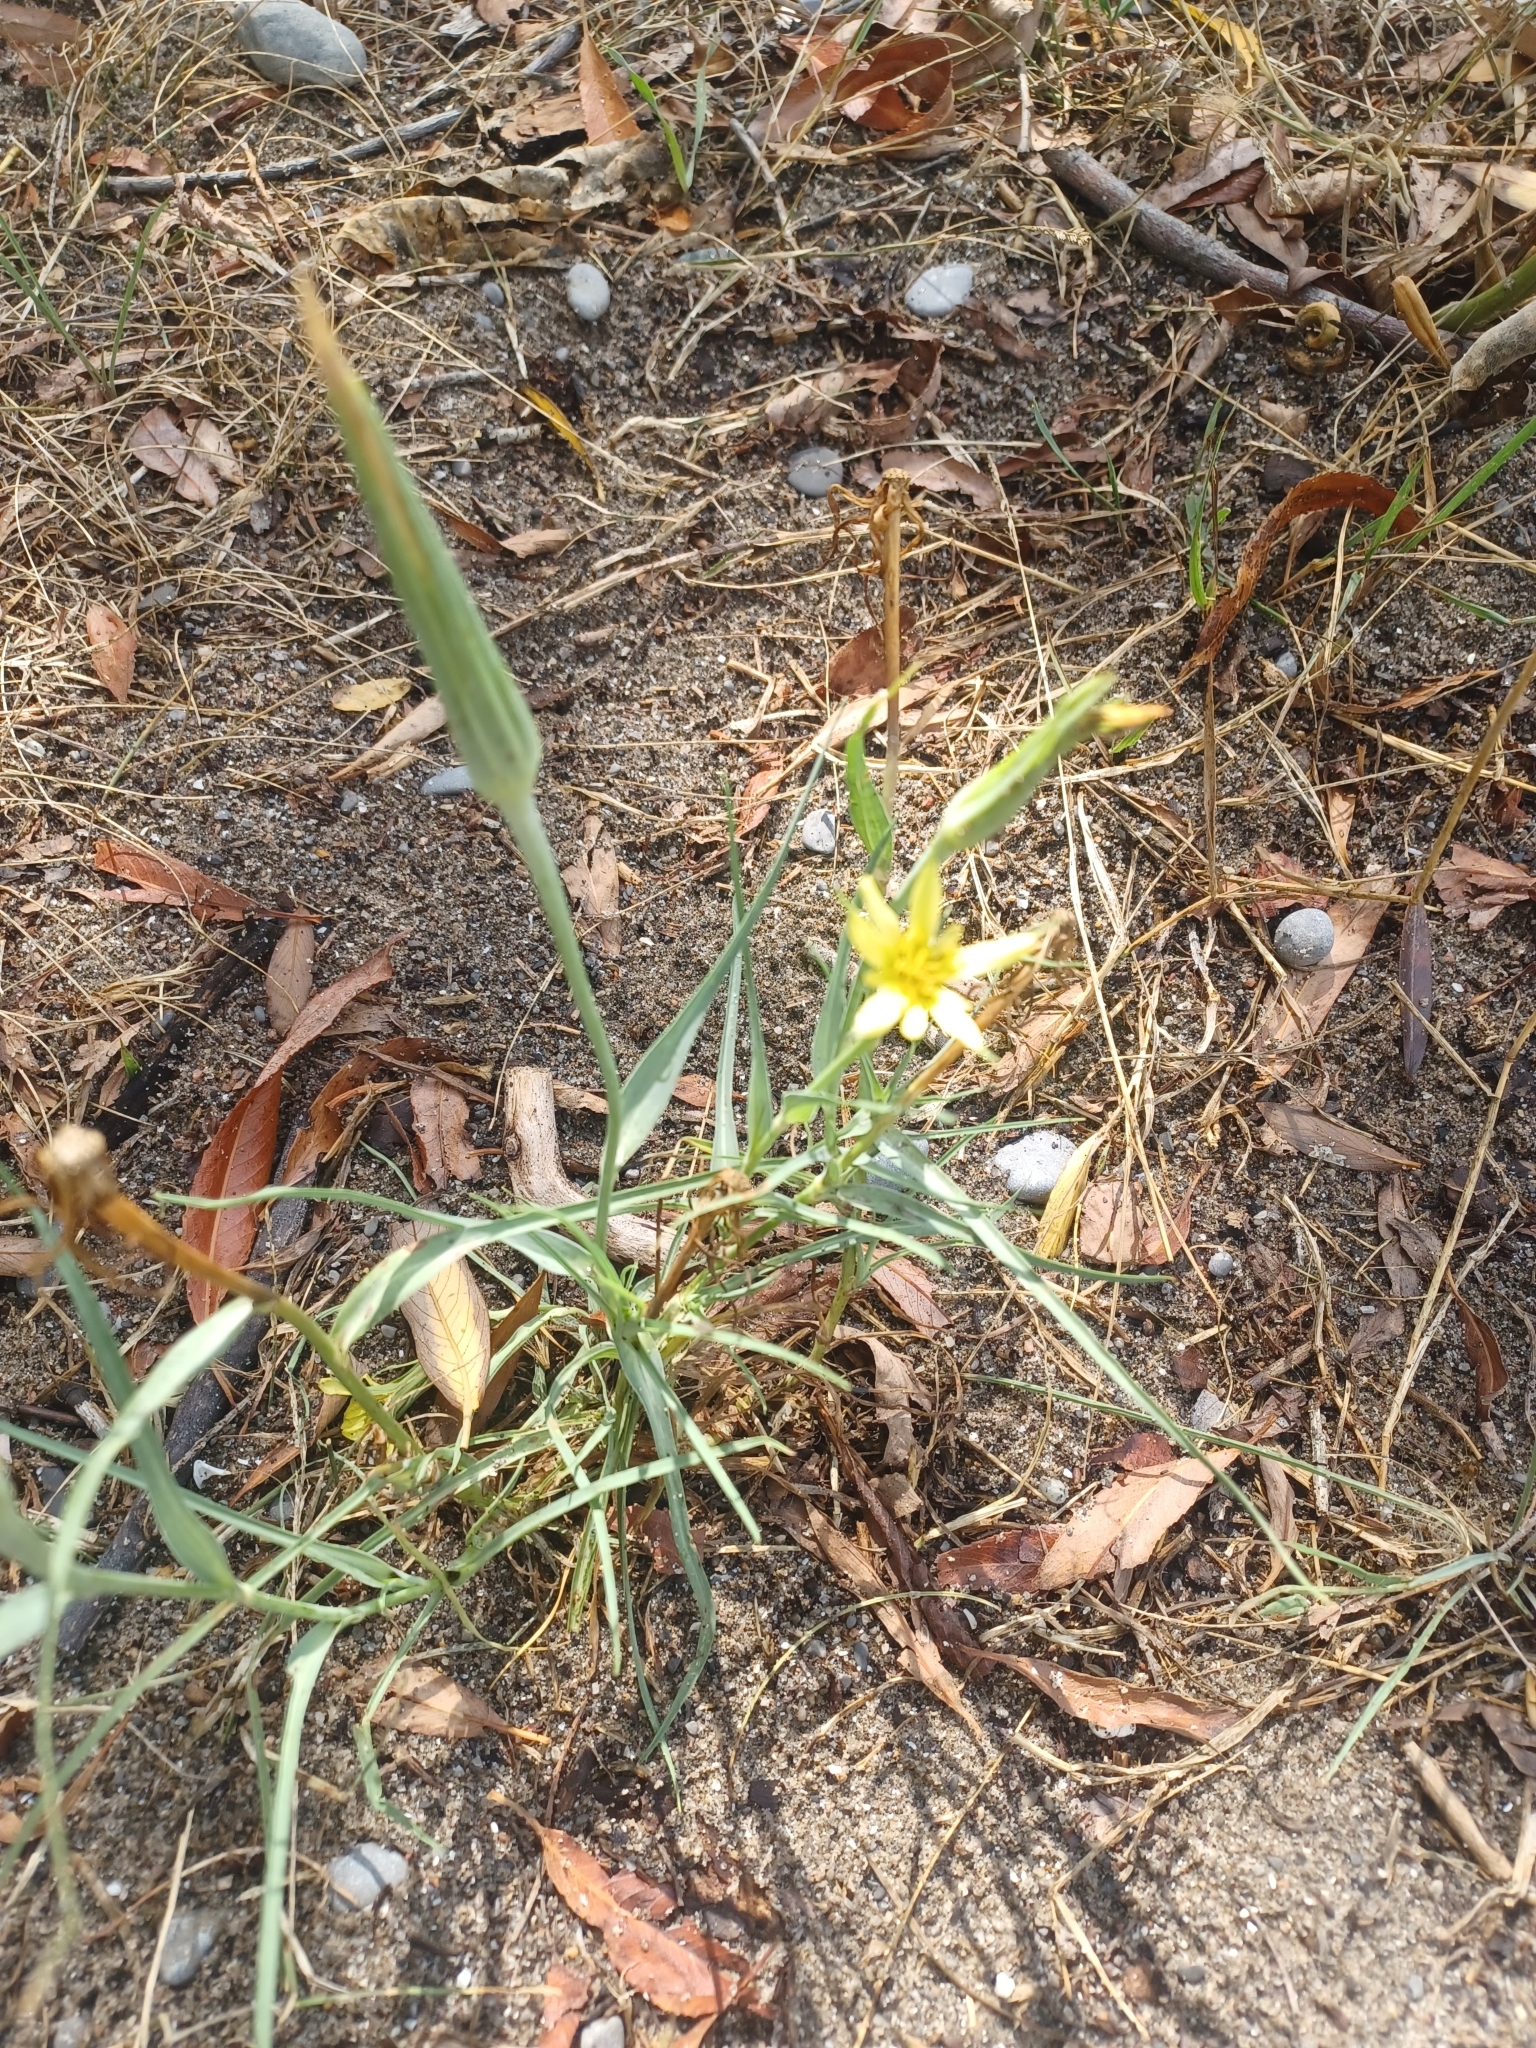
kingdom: Plantae
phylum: Tracheophyta
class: Magnoliopsida
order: Asterales
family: Asteraceae
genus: Tragopogon
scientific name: Tragopogon dubius
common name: Yellow salsify
